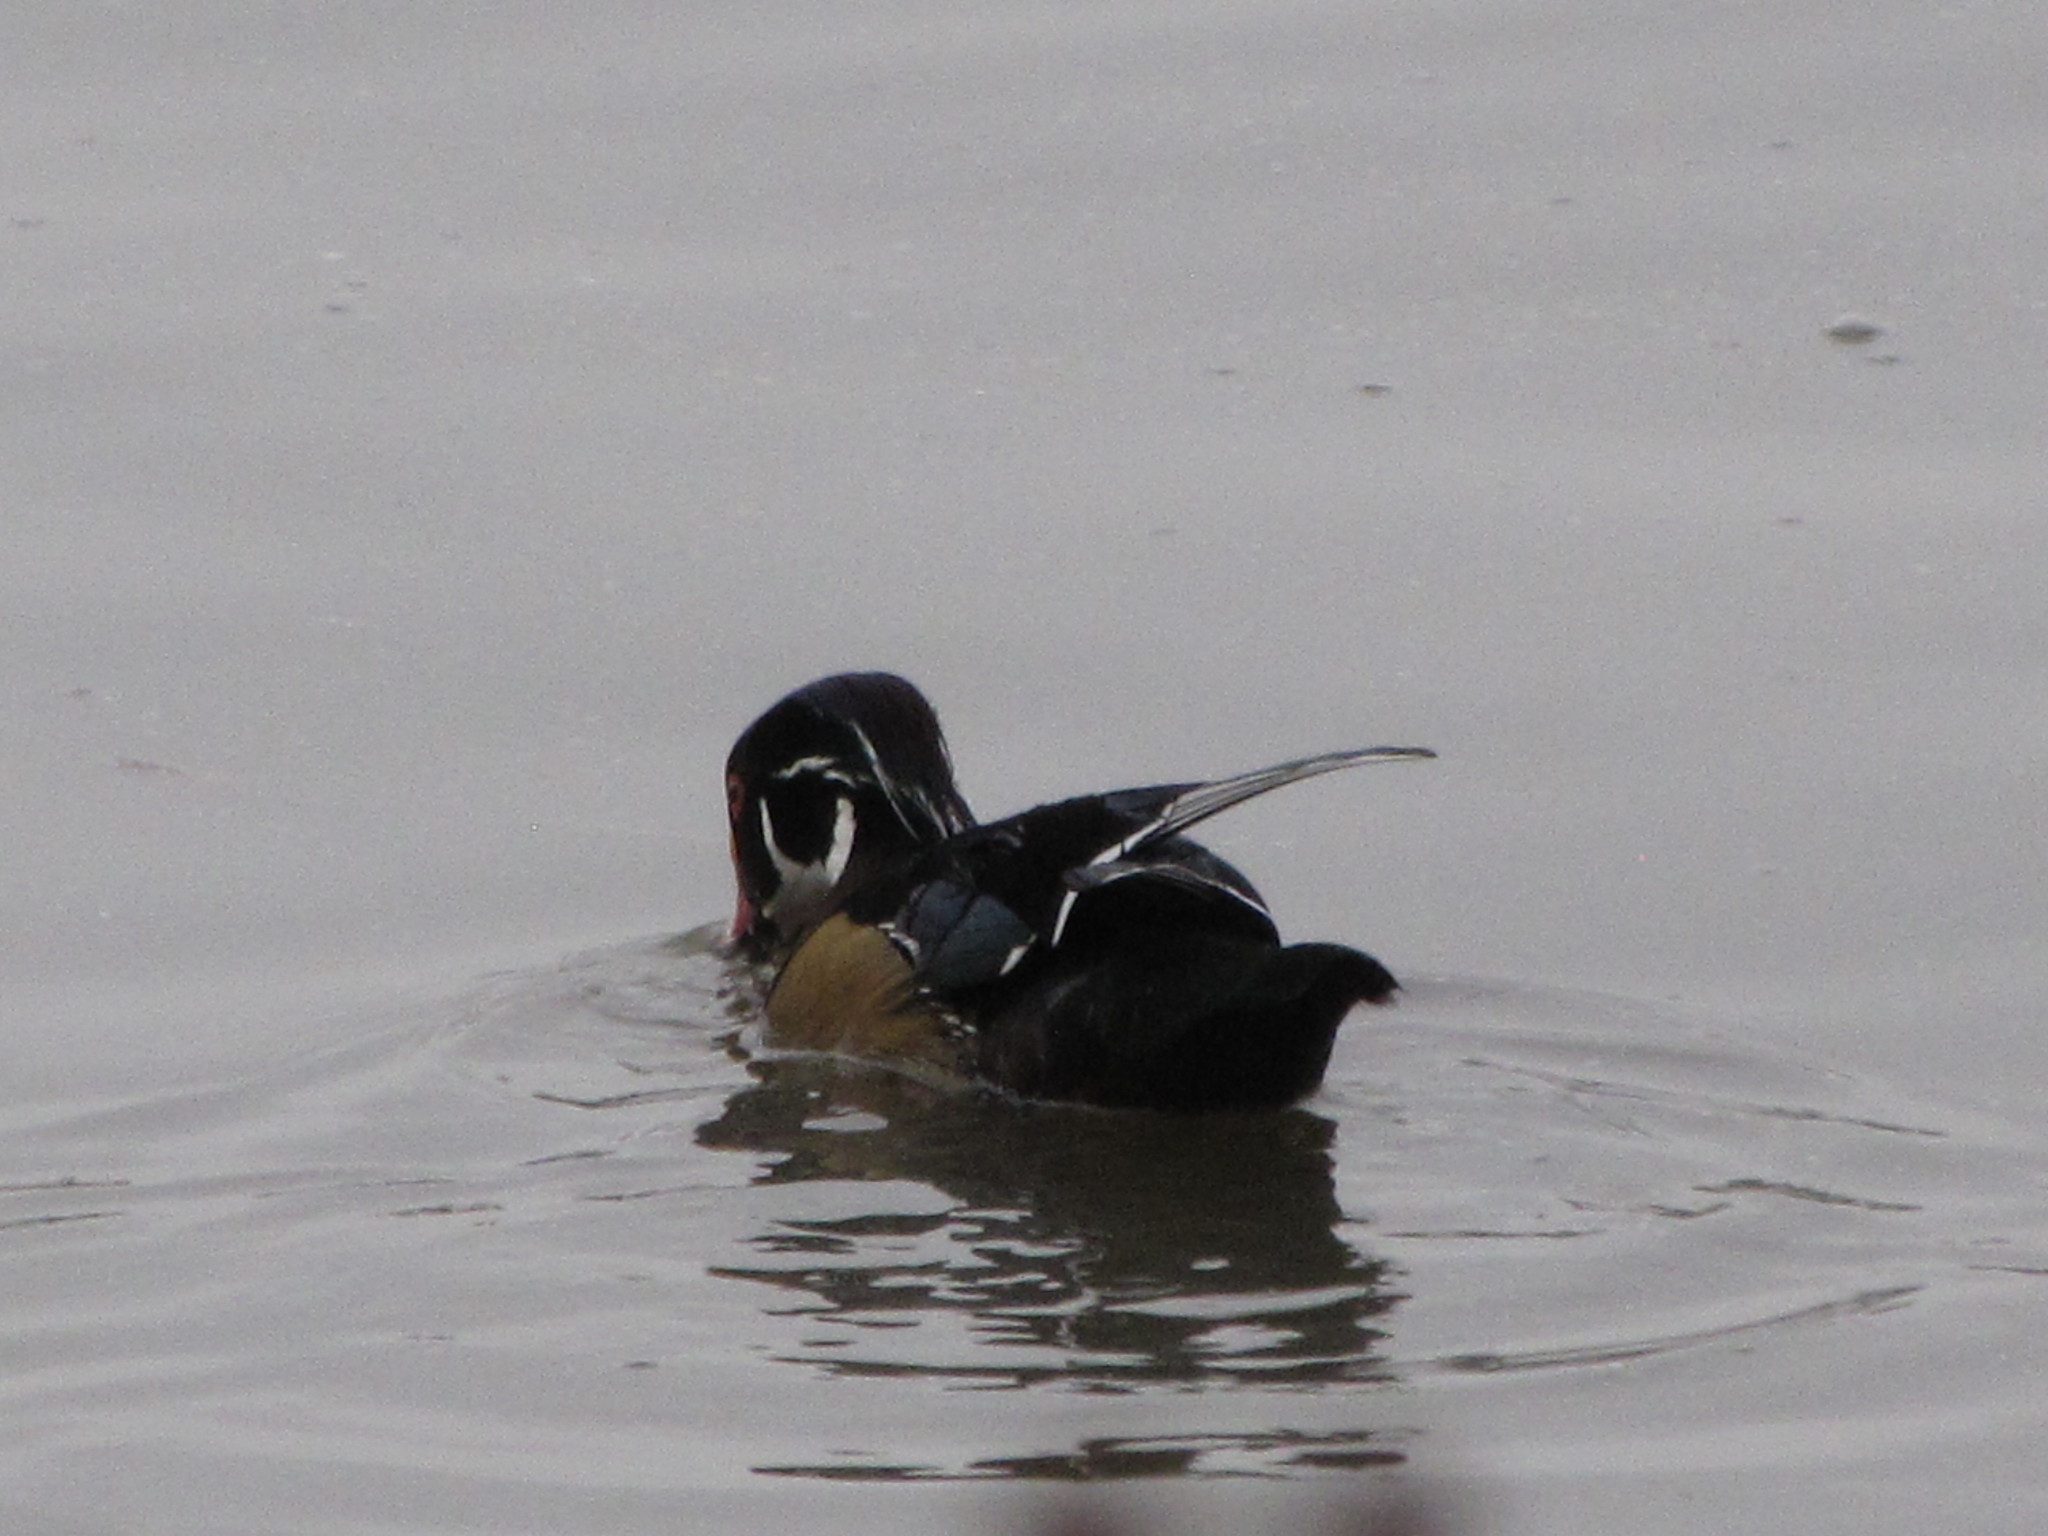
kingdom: Animalia
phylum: Chordata
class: Aves
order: Anseriformes
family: Anatidae
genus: Aix
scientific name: Aix sponsa
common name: Wood duck
